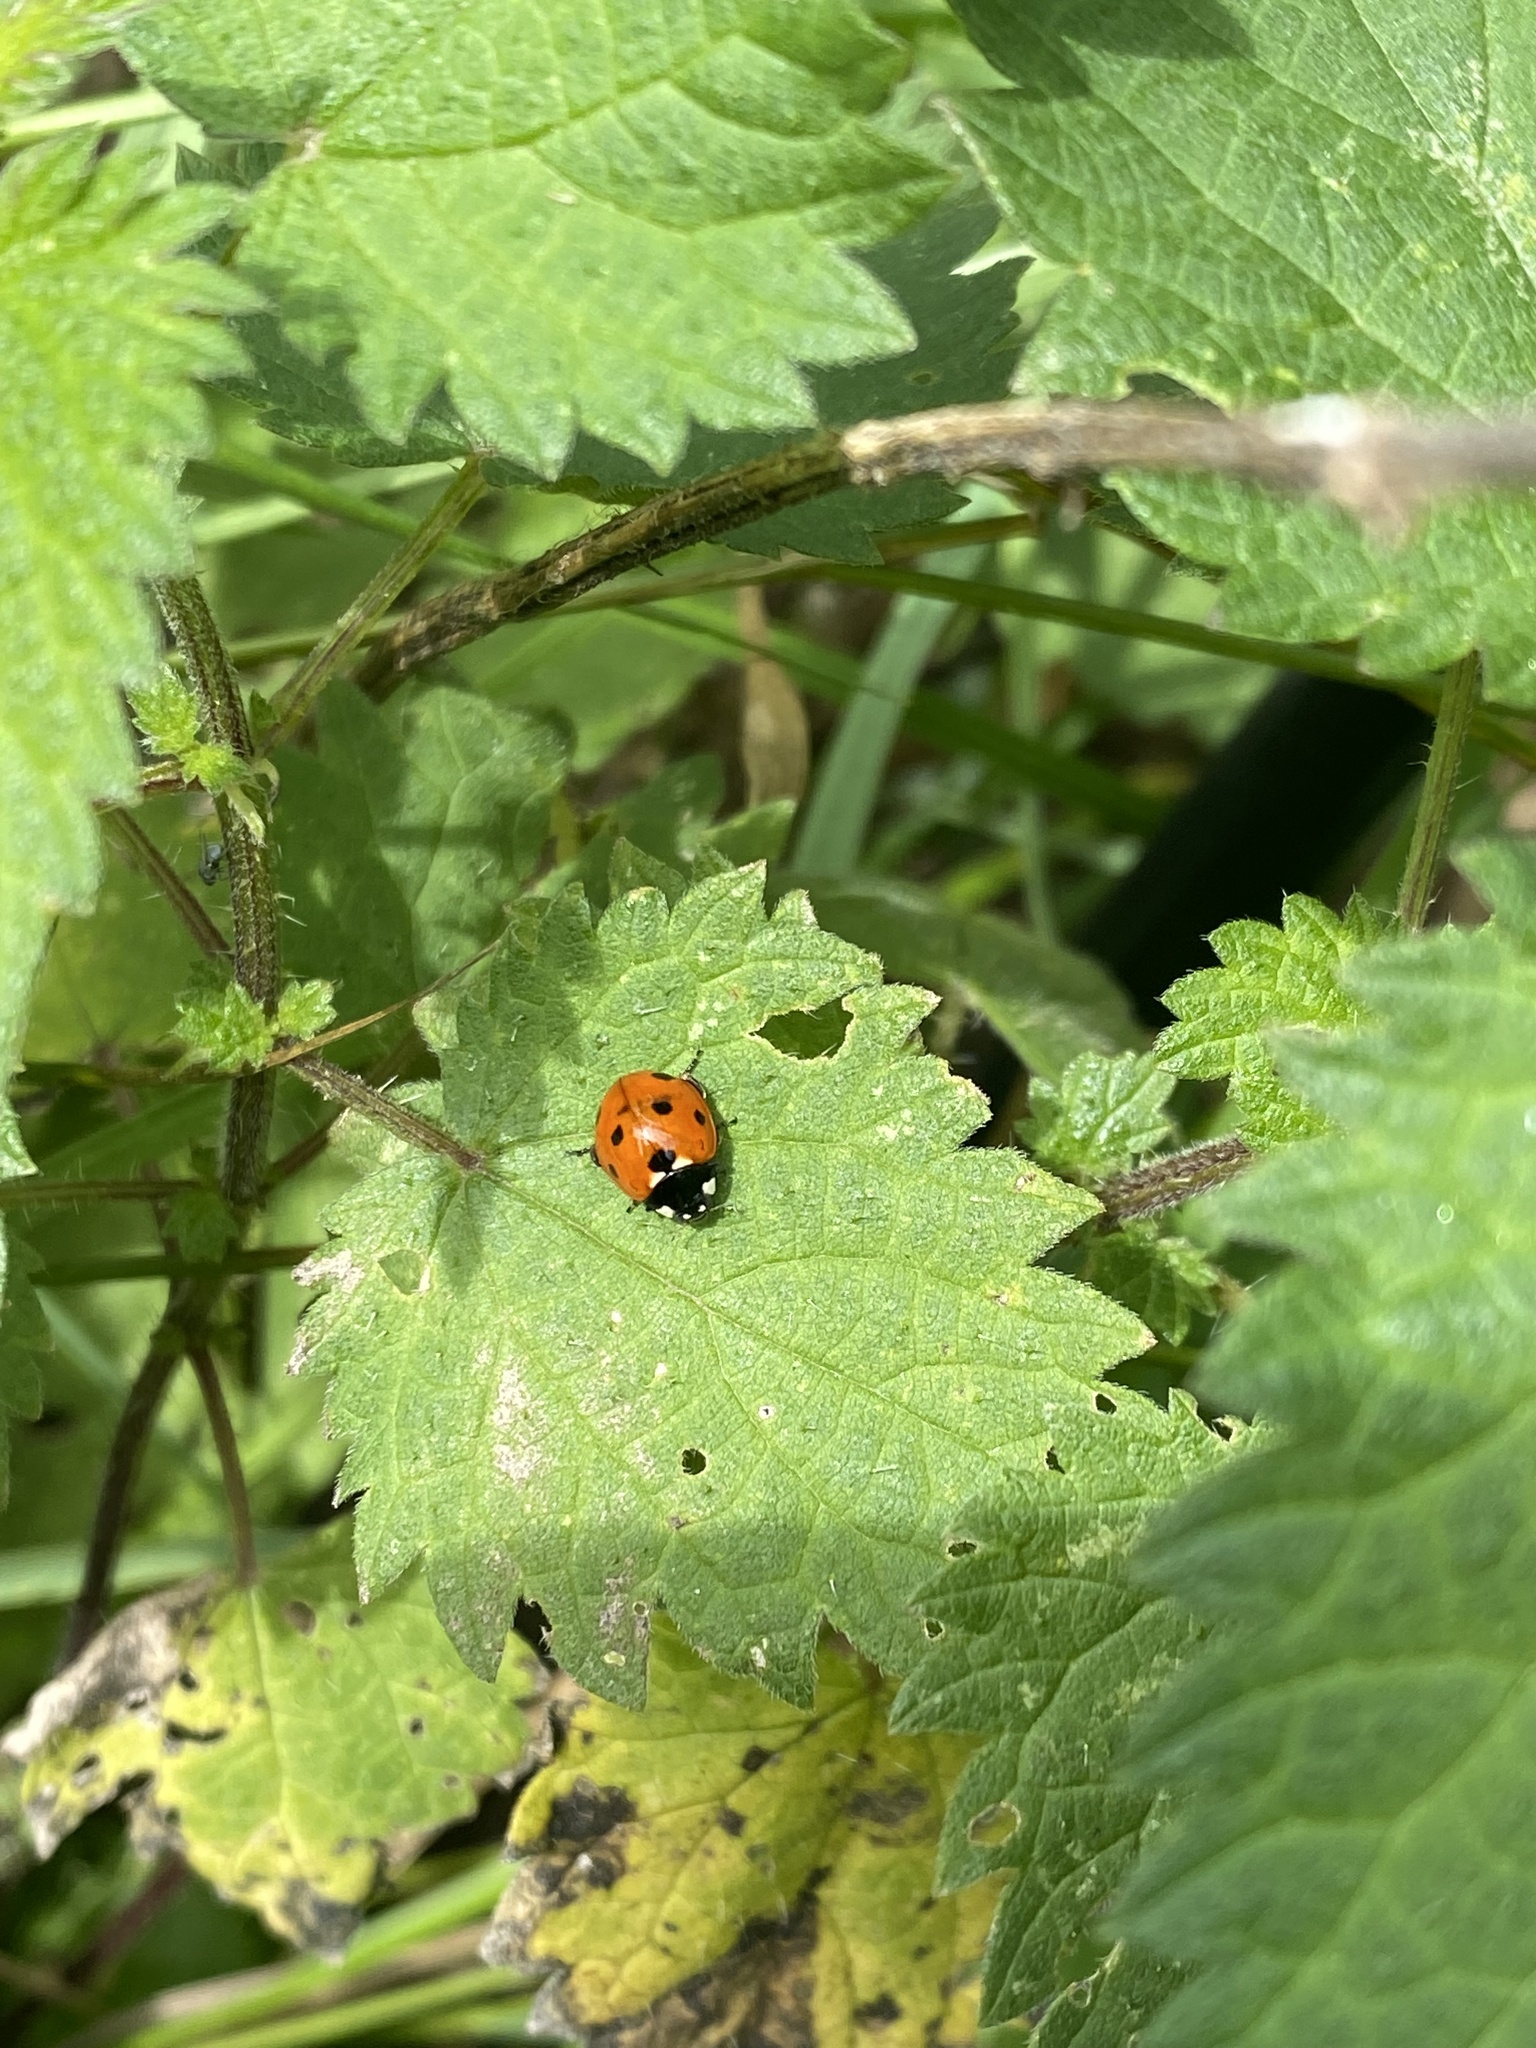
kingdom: Animalia
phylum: Arthropoda
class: Insecta
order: Coleoptera
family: Coccinellidae
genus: Coccinella
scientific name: Coccinella septempunctata
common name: Sevenspotted lady beetle
